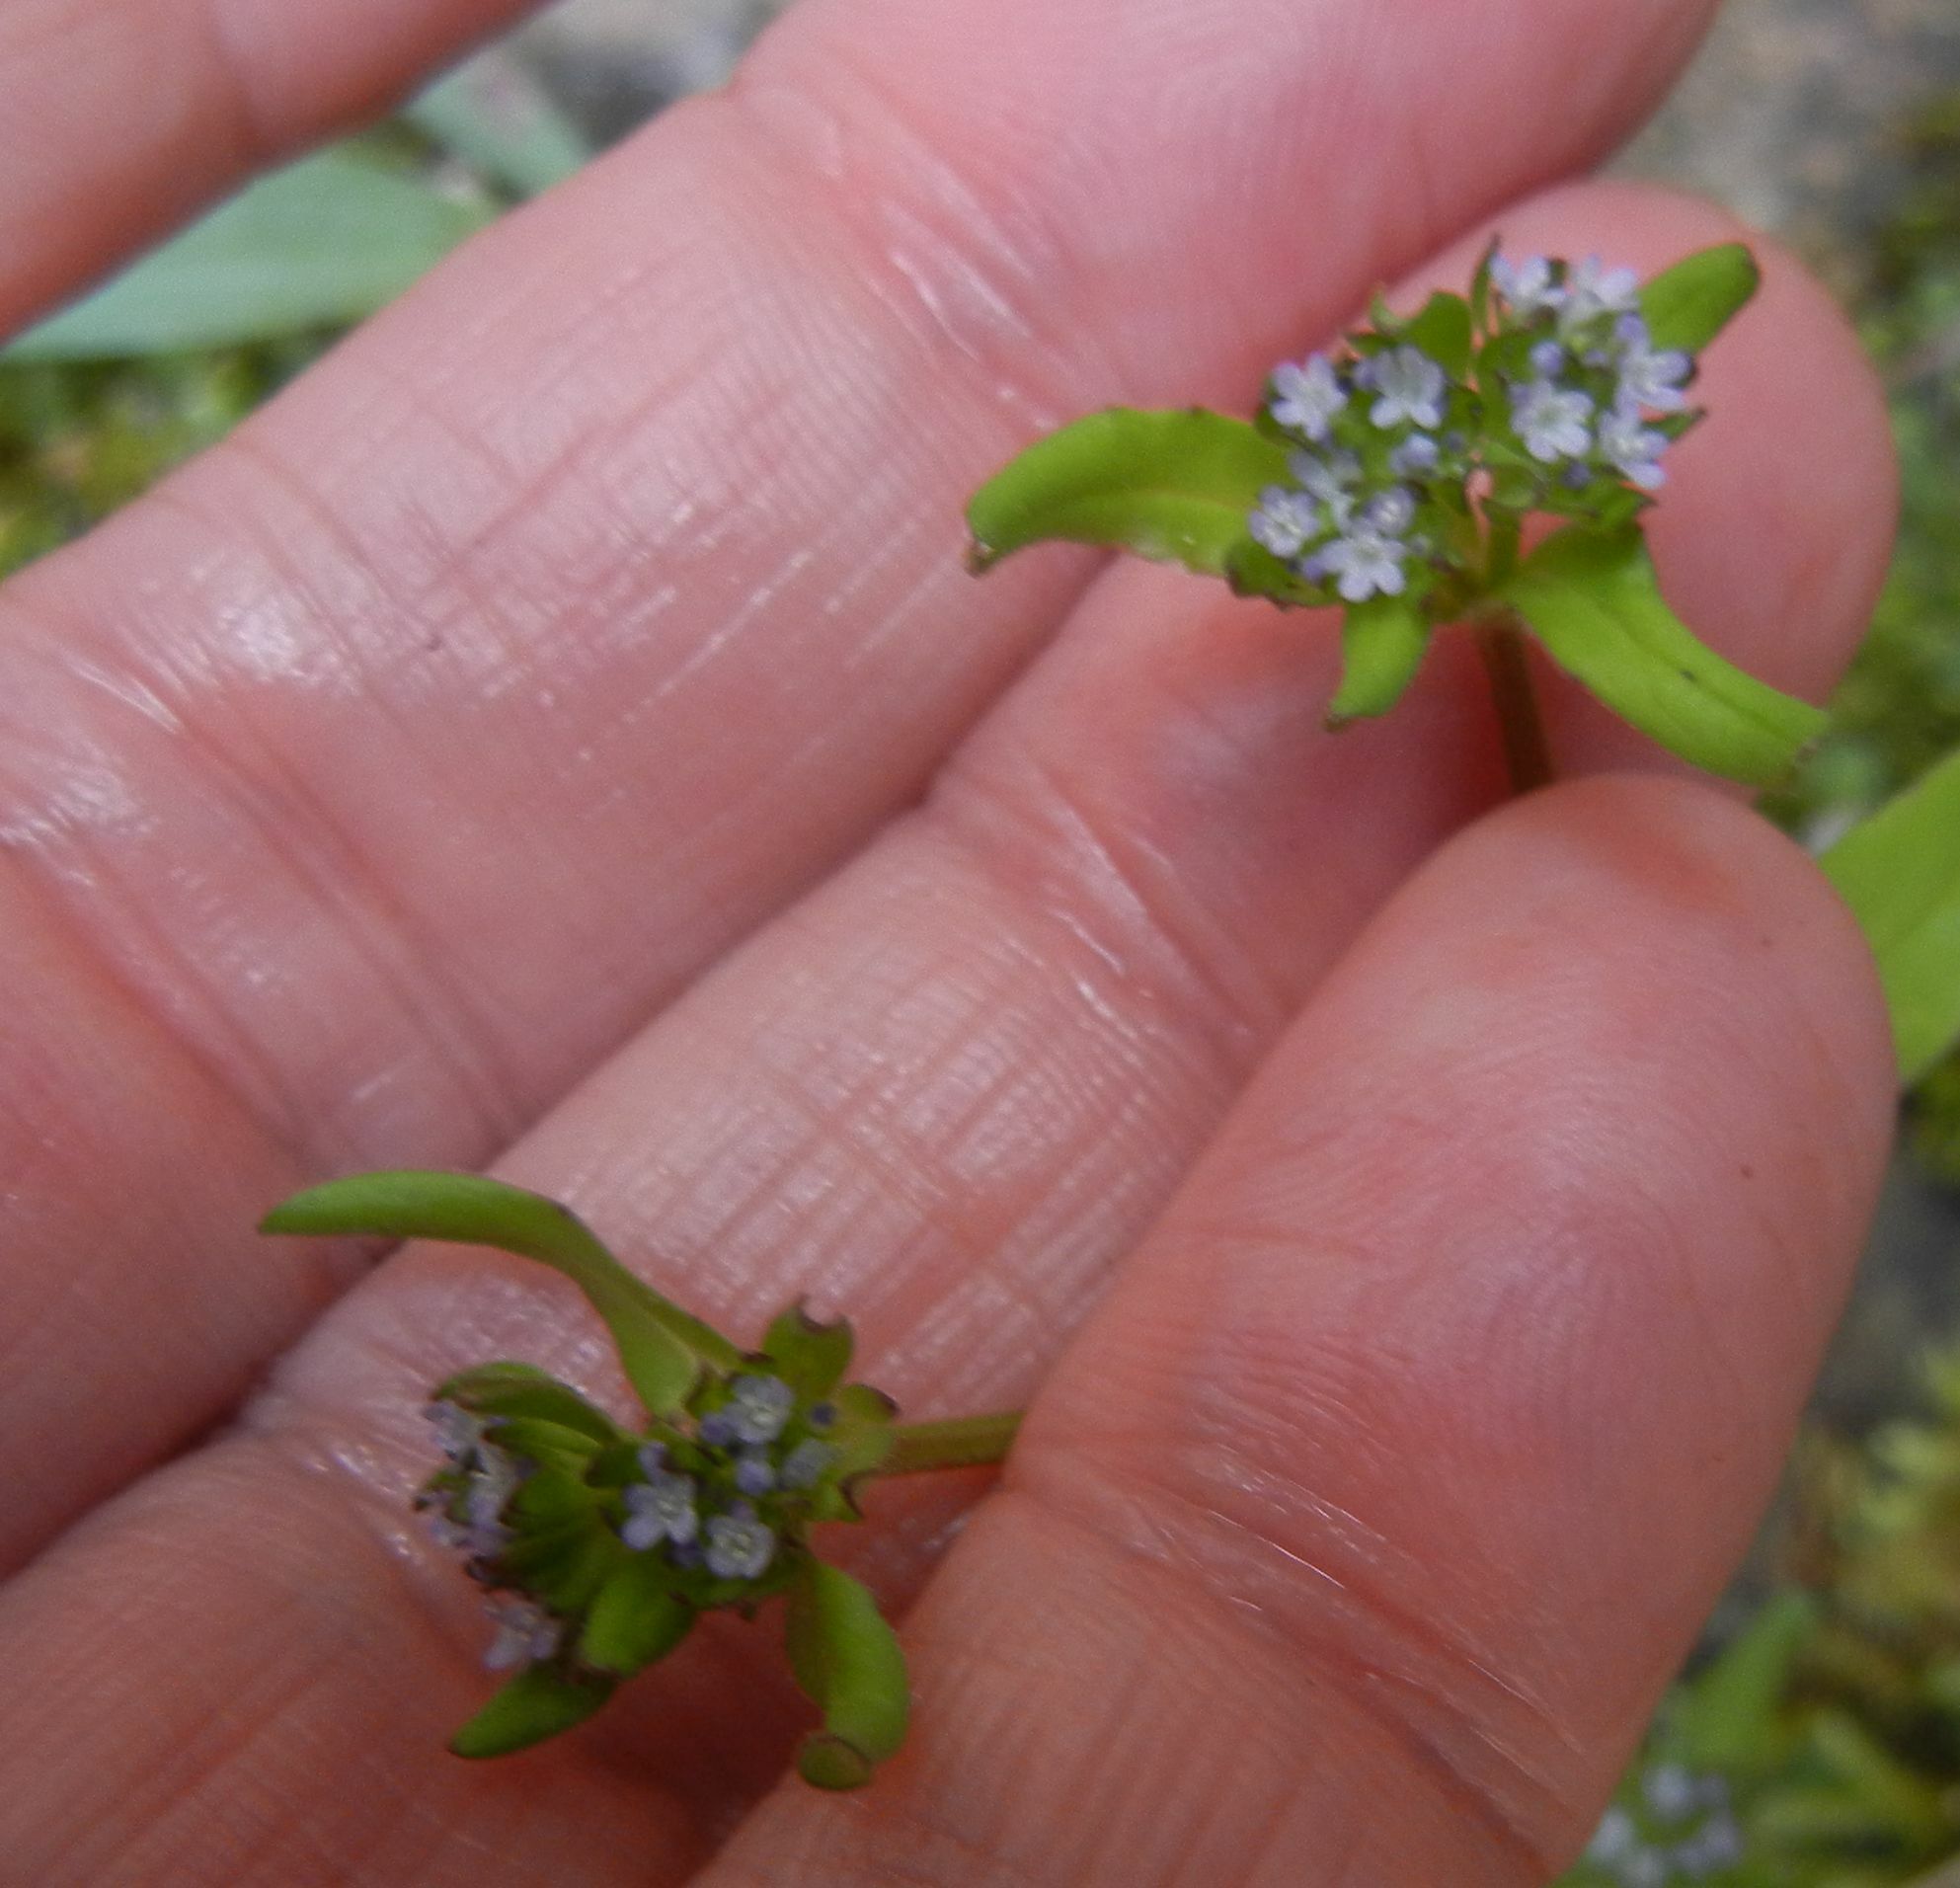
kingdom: Plantae
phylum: Tracheophyta
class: Magnoliopsida
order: Dipsacales
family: Caprifoliaceae
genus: Valerianella
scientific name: Valerianella locusta
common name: Common cornsalad
